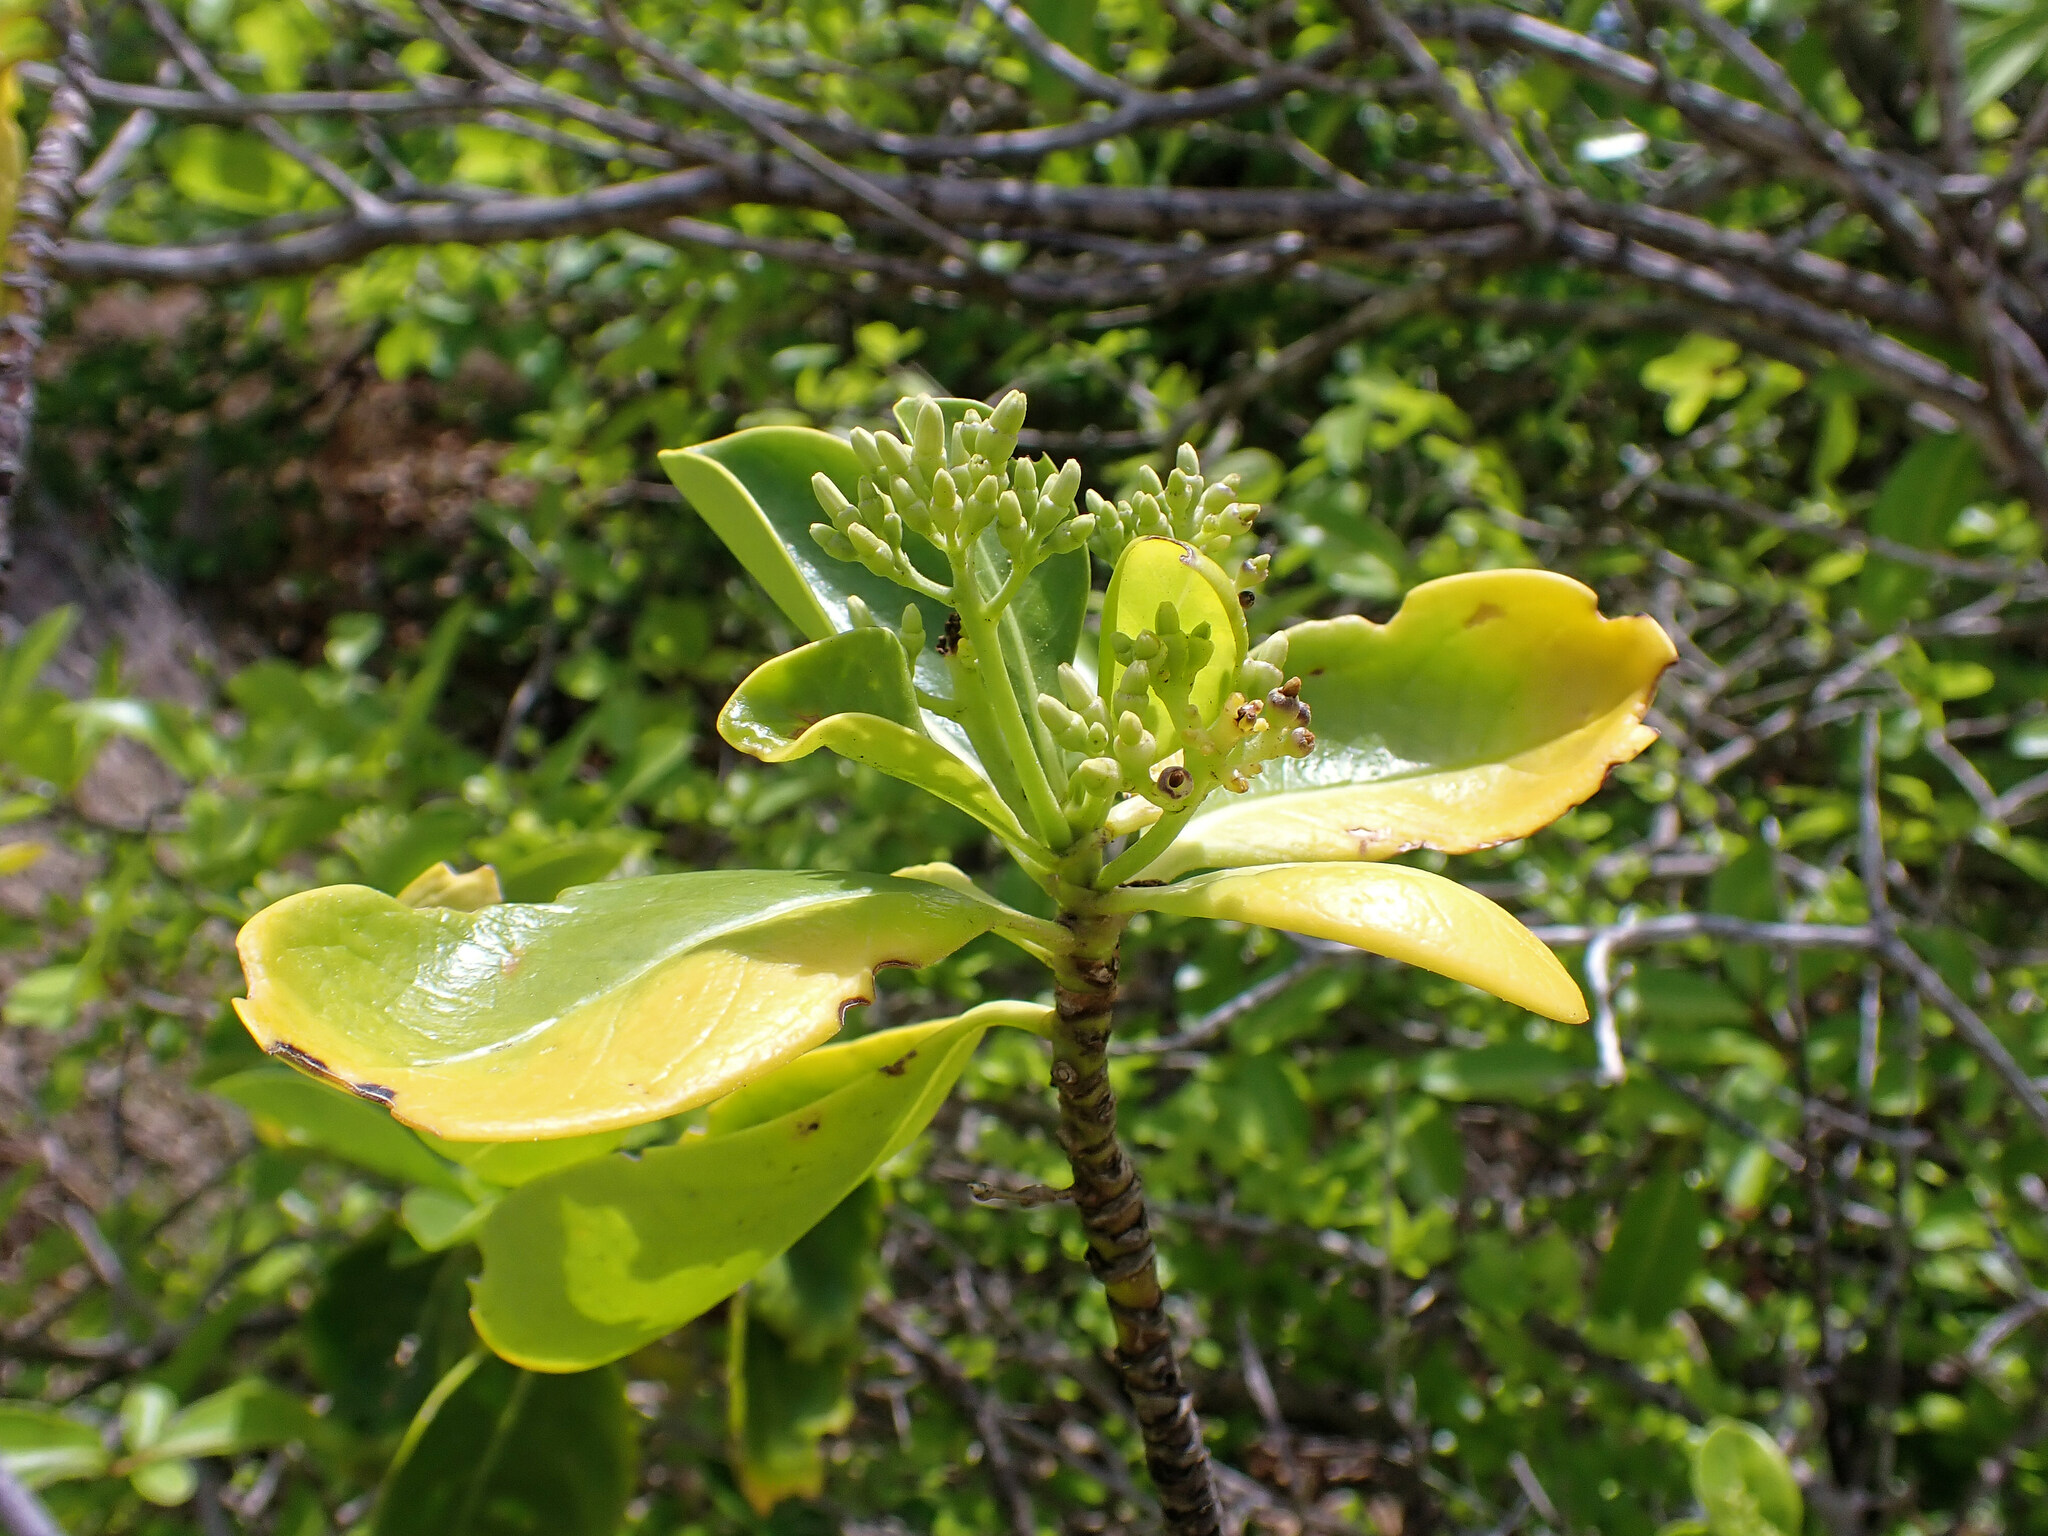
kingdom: Plantae
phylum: Tracheophyta
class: Magnoliopsida
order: Gentianales
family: Rubiaceae
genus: Erithalis
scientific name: Erithalis fruticosa
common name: Candlewood
